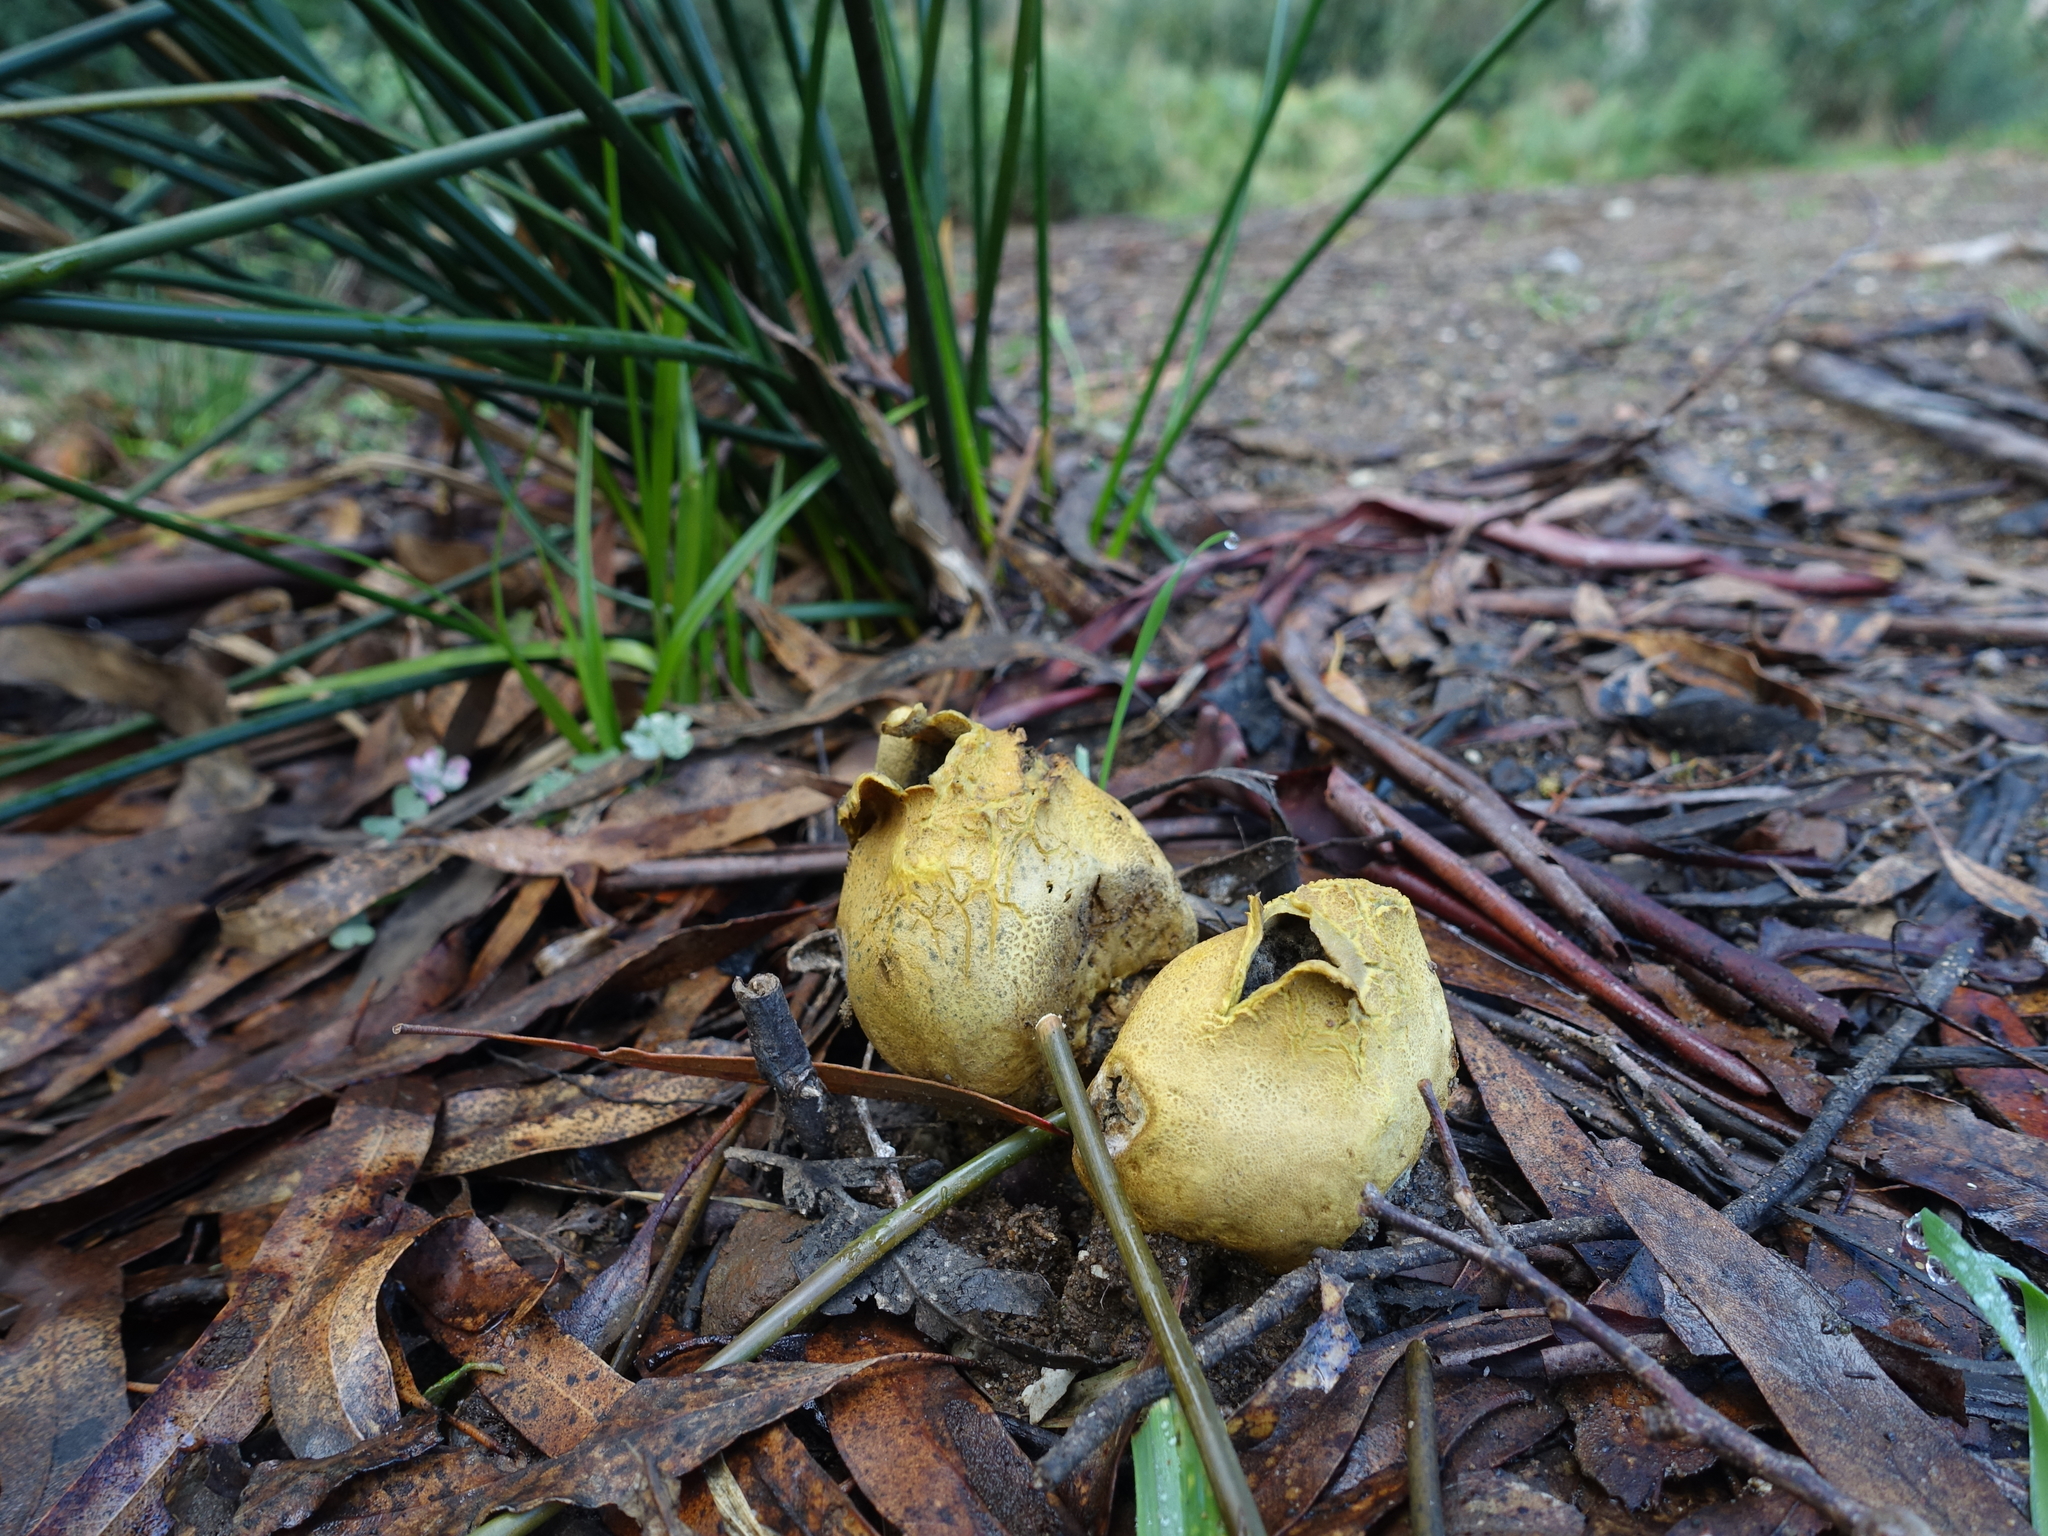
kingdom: Fungi
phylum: Basidiomycota
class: Agaricomycetes
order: Boletales
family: Sclerodermataceae
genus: Scleroderma
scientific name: Scleroderma cepa
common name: Onion earthball
